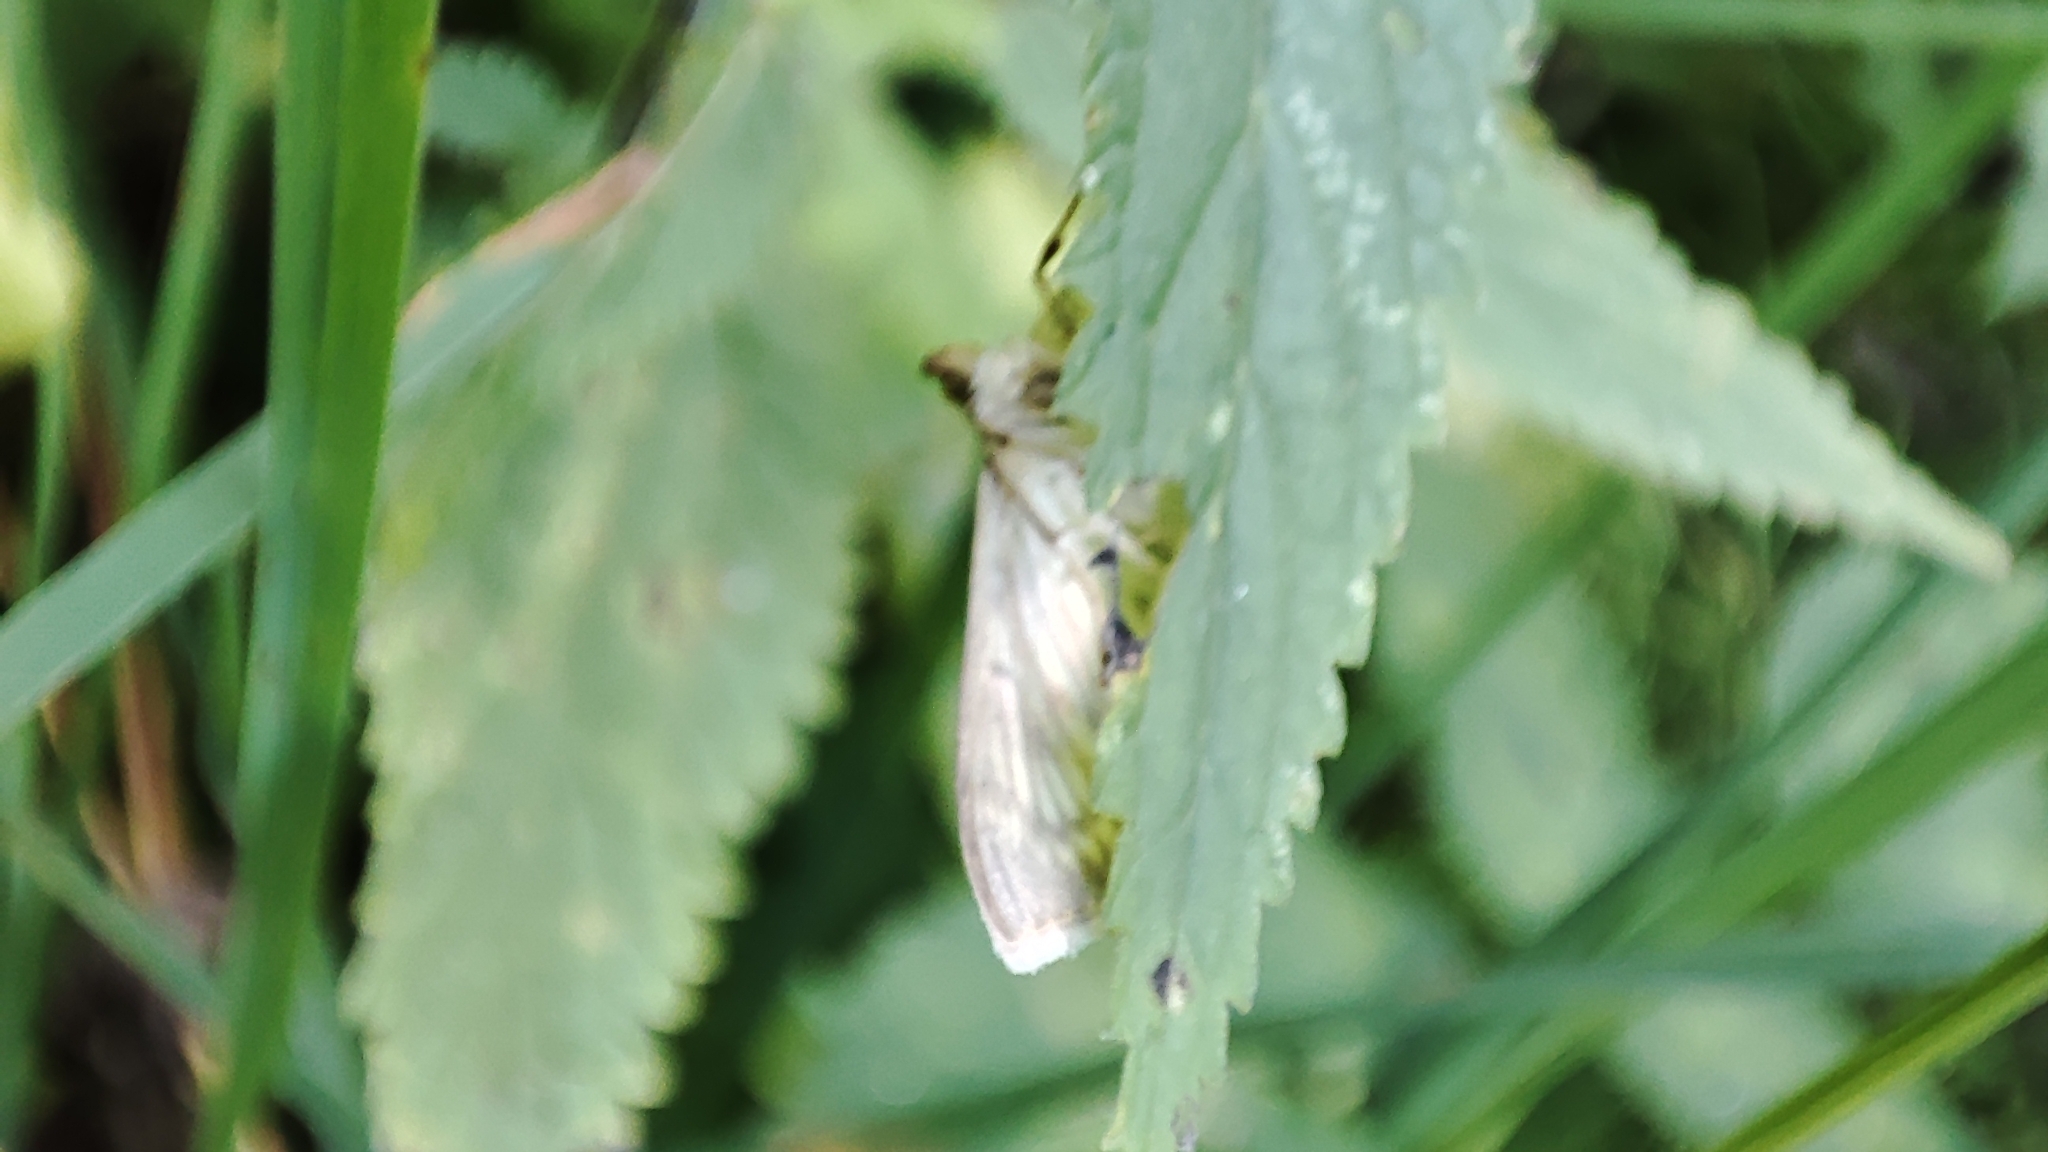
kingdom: Animalia
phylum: Arthropoda
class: Insecta
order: Lepidoptera
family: Crambidae
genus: Patania
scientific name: Patania ruralis
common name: Mother of pearl
